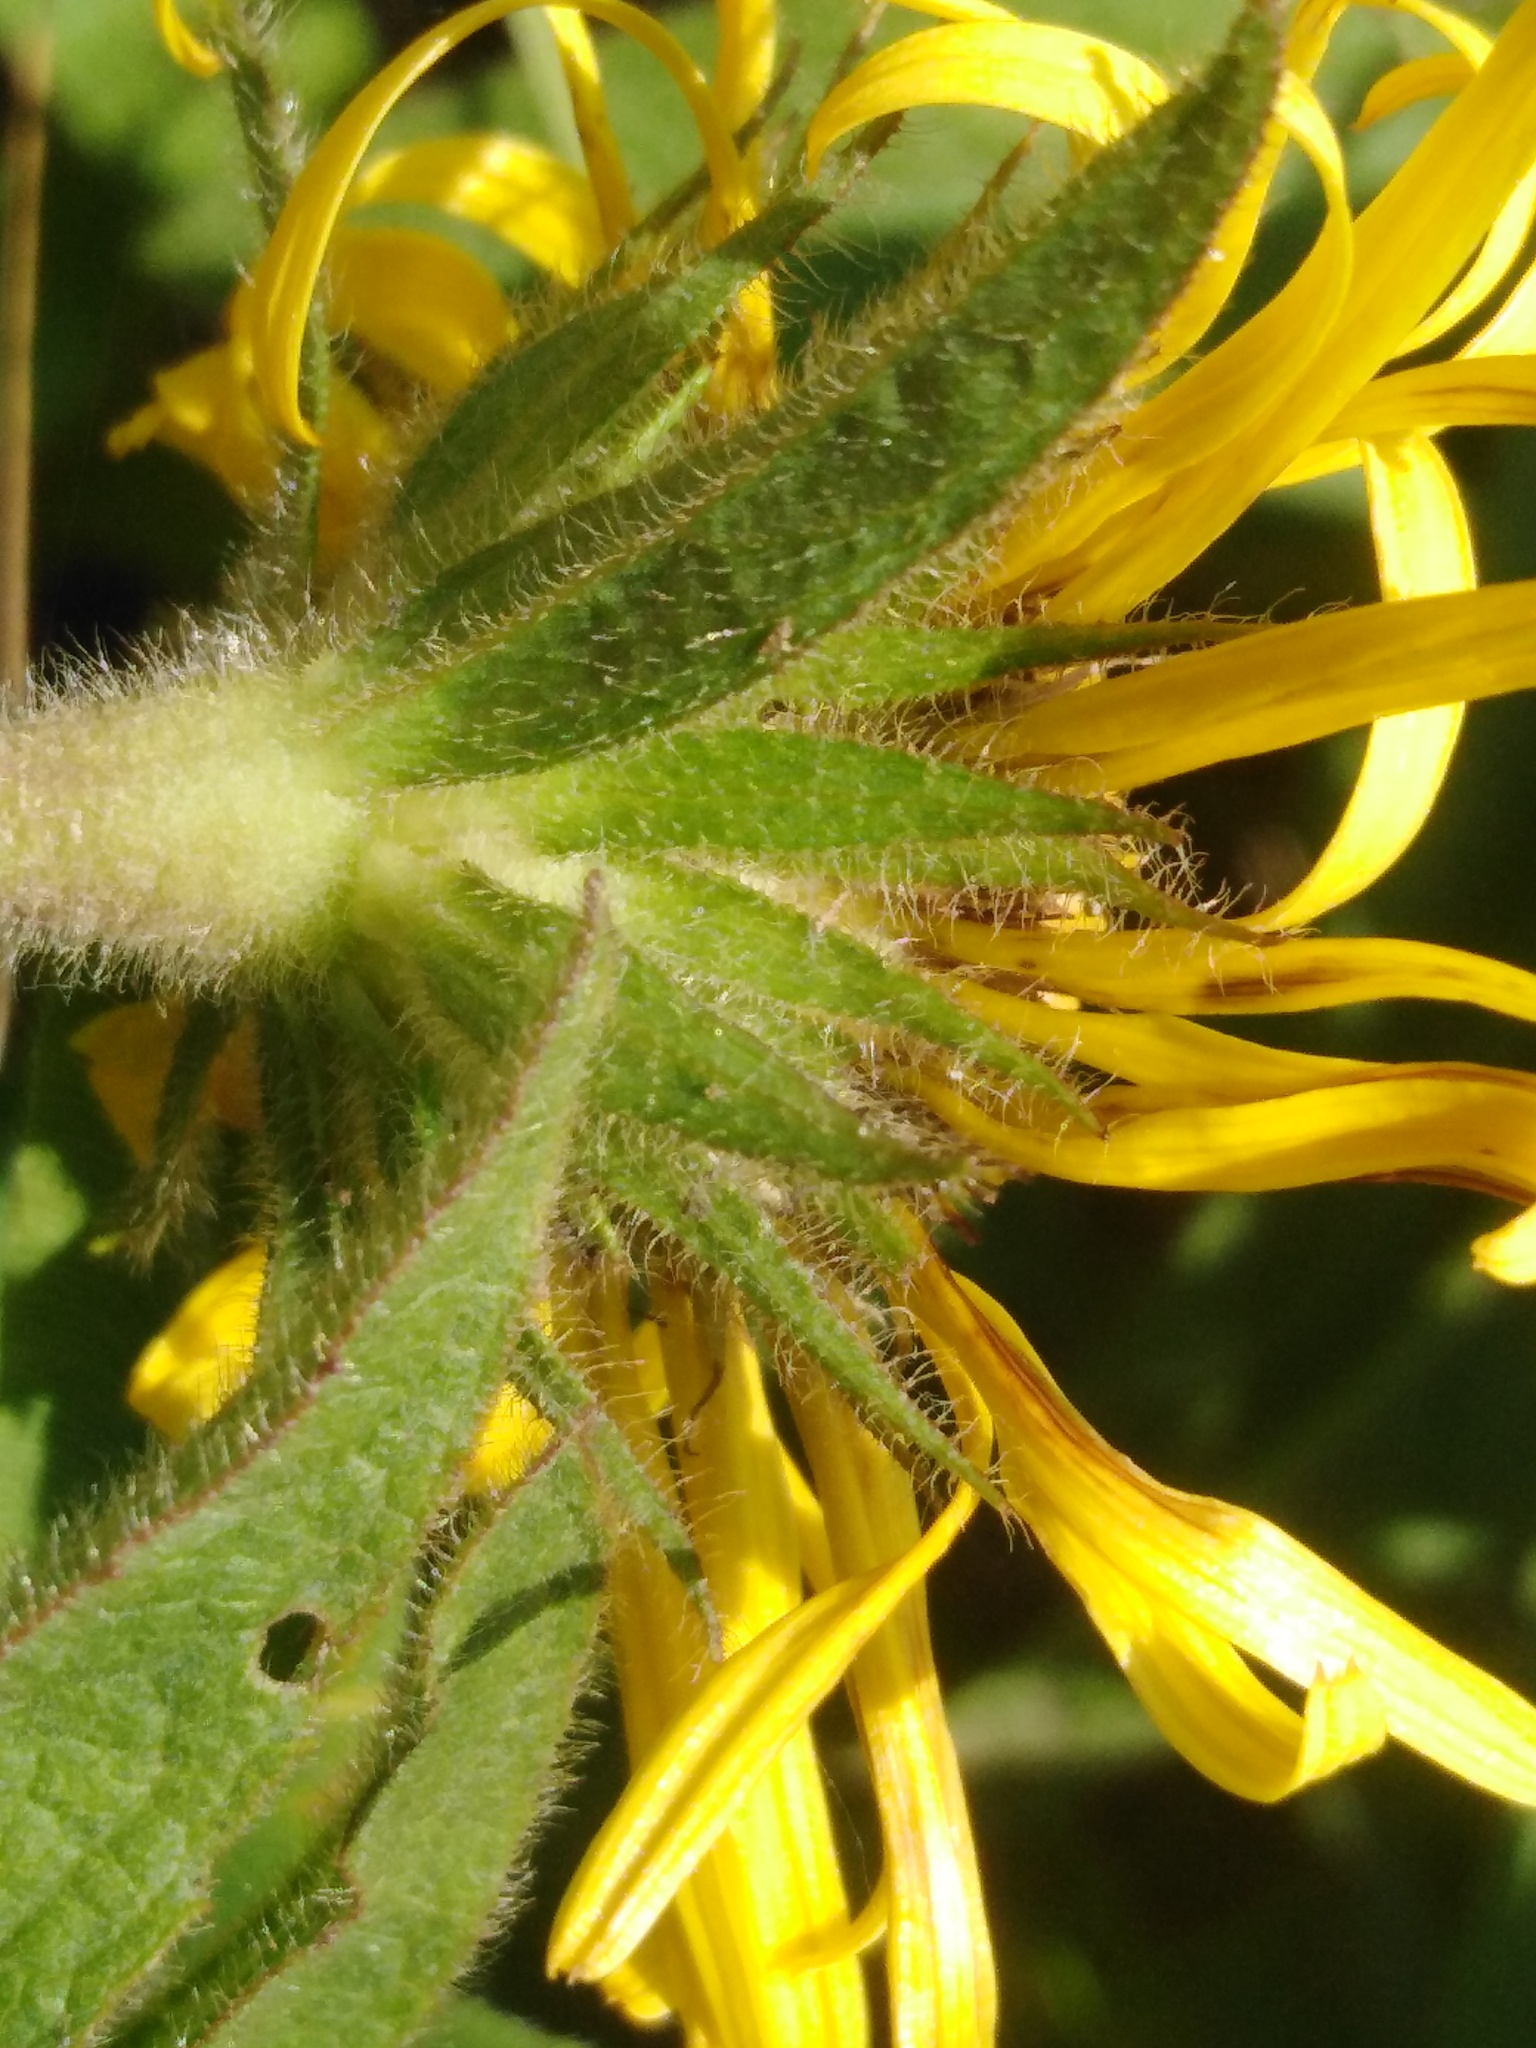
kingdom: Plantae
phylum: Tracheophyta
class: Magnoliopsida
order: Asterales
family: Asteraceae
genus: Pentanema
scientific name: Pentanema hirtum
